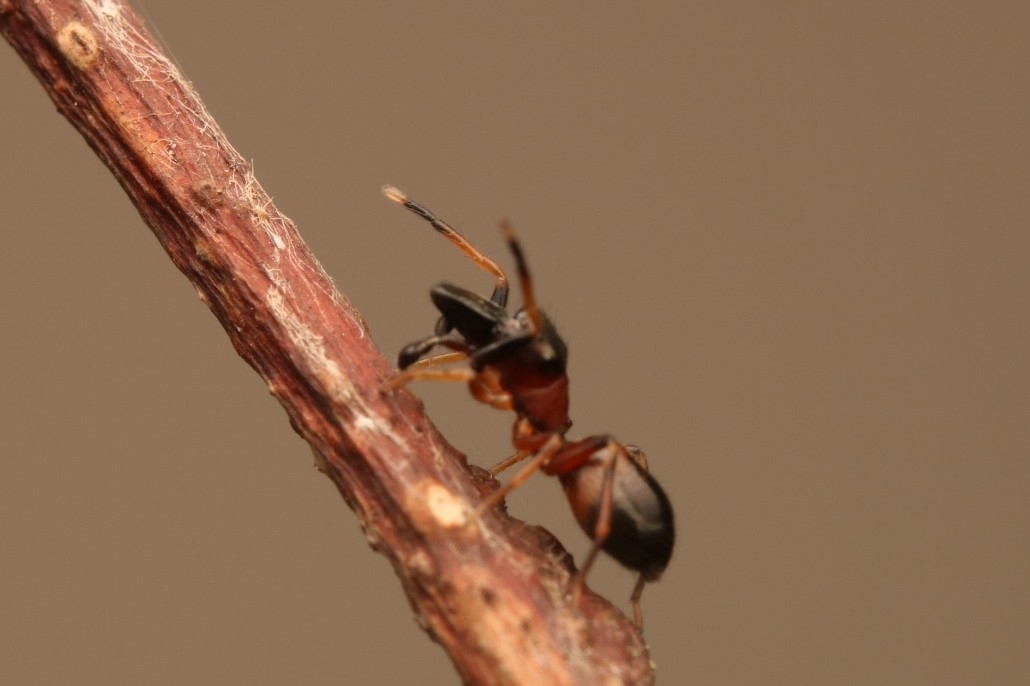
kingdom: Animalia
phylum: Arthropoda
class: Arachnida
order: Araneae
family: Salticidae
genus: Myrmarachne
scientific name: Myrmarachne formicaria
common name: Ant mimic jumping spider
